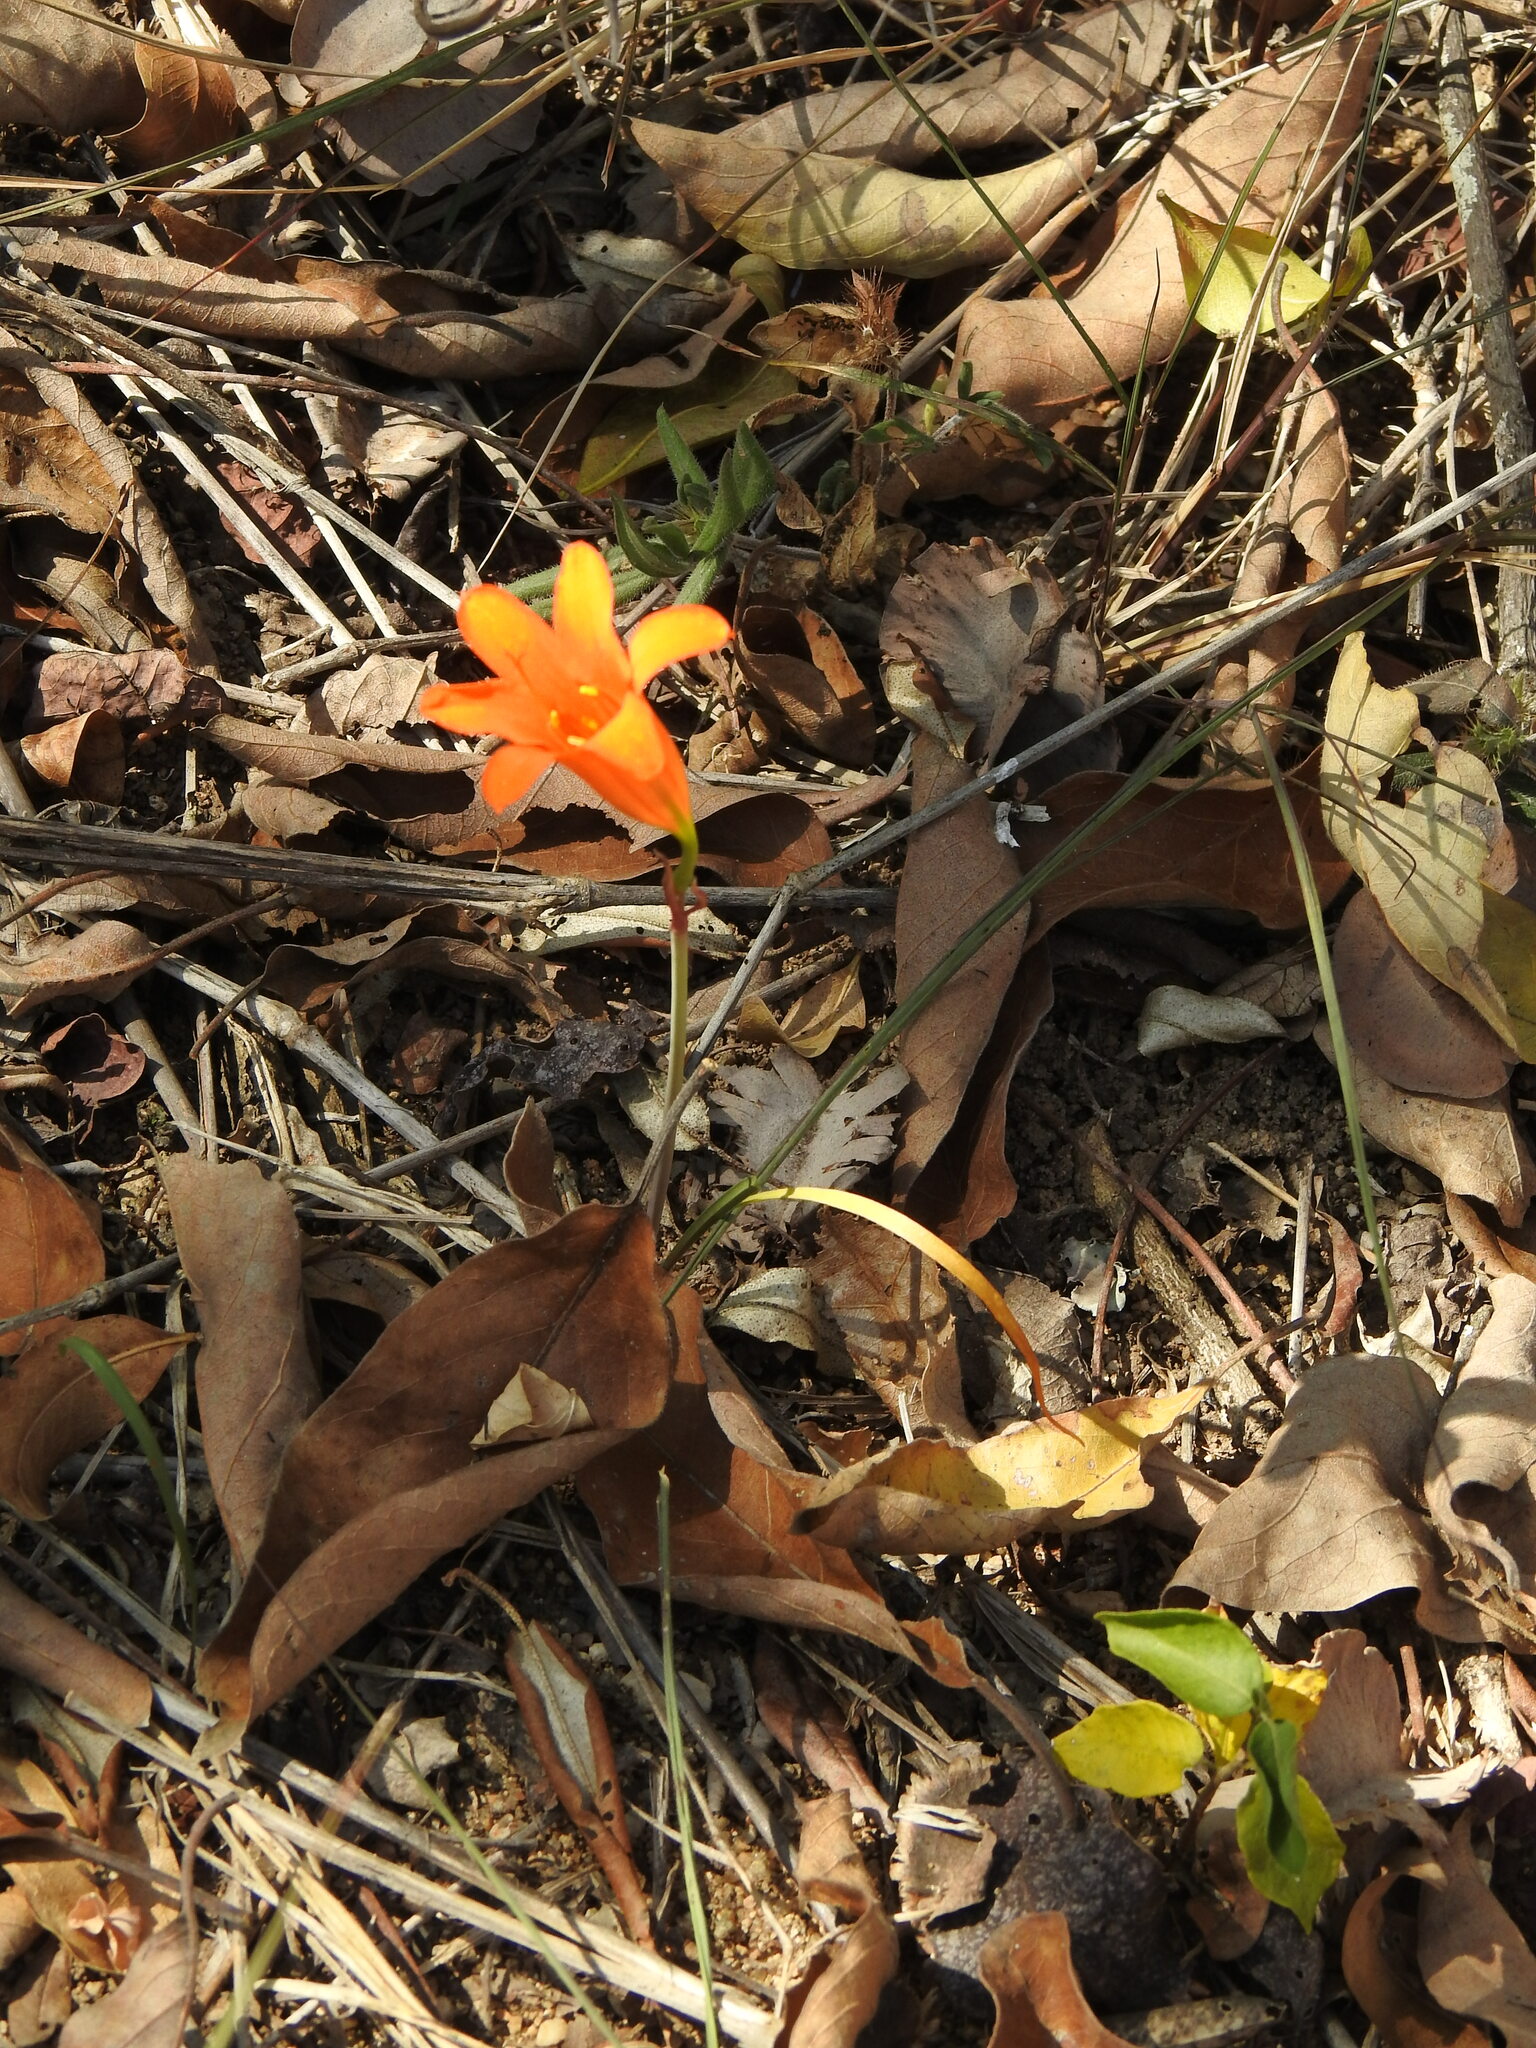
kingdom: Plantae
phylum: Tracheophyta
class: Liliopsida
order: Asparagales
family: Amaryllidaceae
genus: Cyrtanthus
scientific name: Cyrtanthus galpinii
